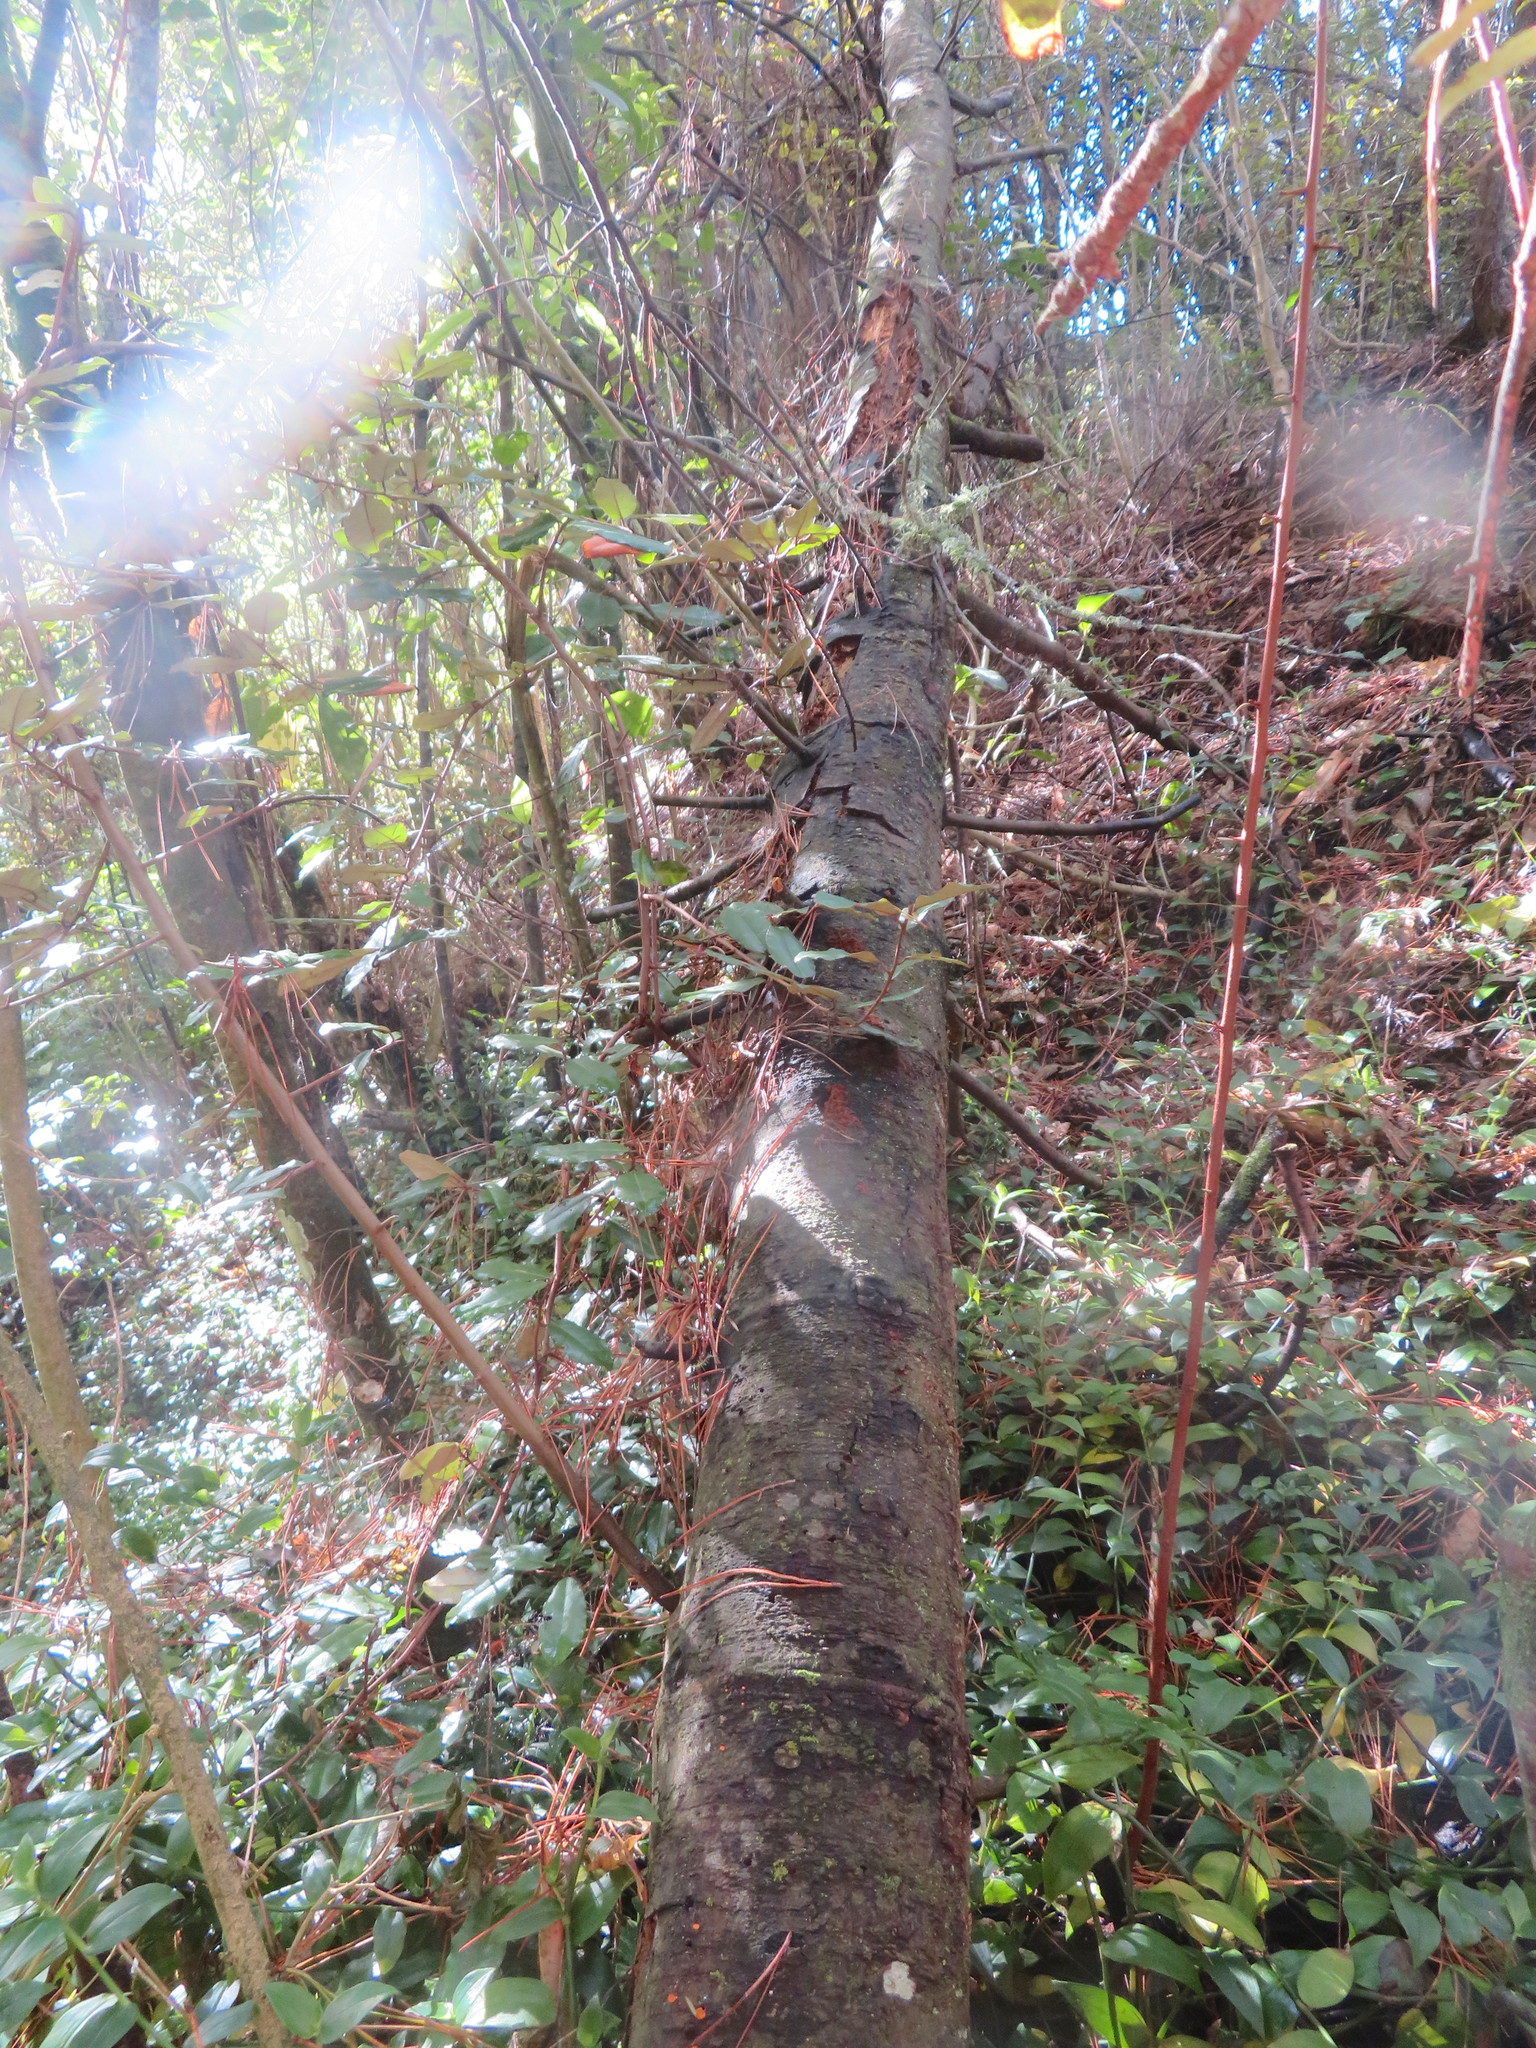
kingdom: Plantae
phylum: Tracheophyta
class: Magnoliopsida
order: Rosales
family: Elaeagnaceae
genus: Elaeagnus
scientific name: Elaeagnus reflexa
